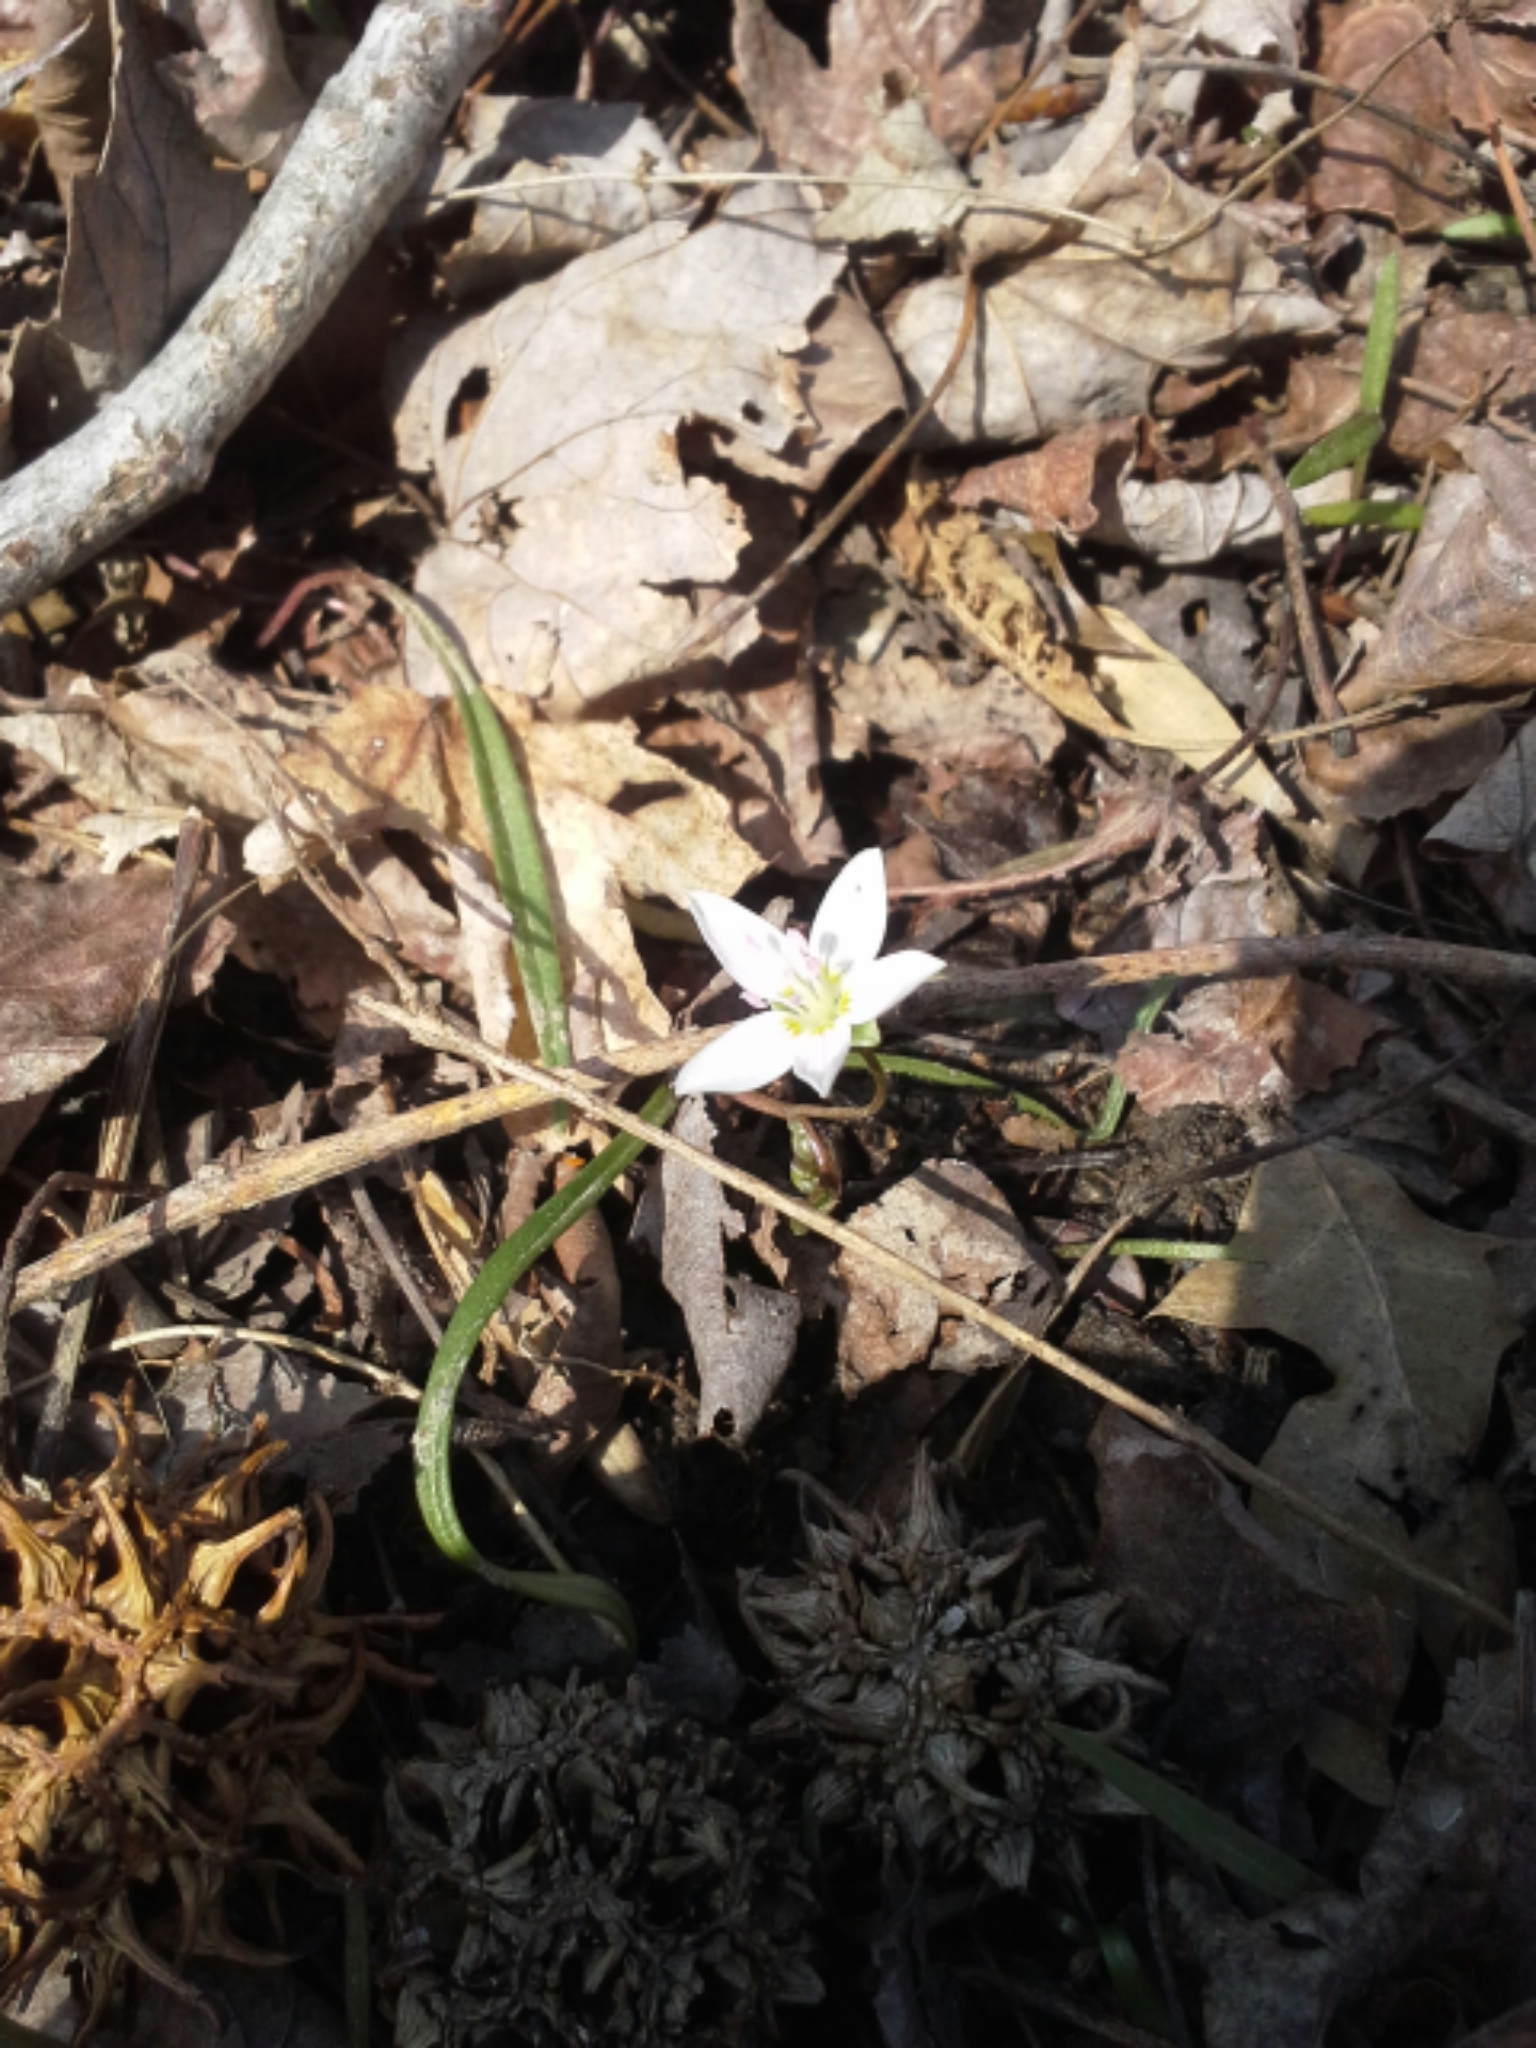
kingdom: Plantae
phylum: Tracheophyta
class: Magnoliopsida
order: Caryophyllales
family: Montiaceae
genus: Claytonia
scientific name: Claytonia virginica
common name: Virginia springbeauty
